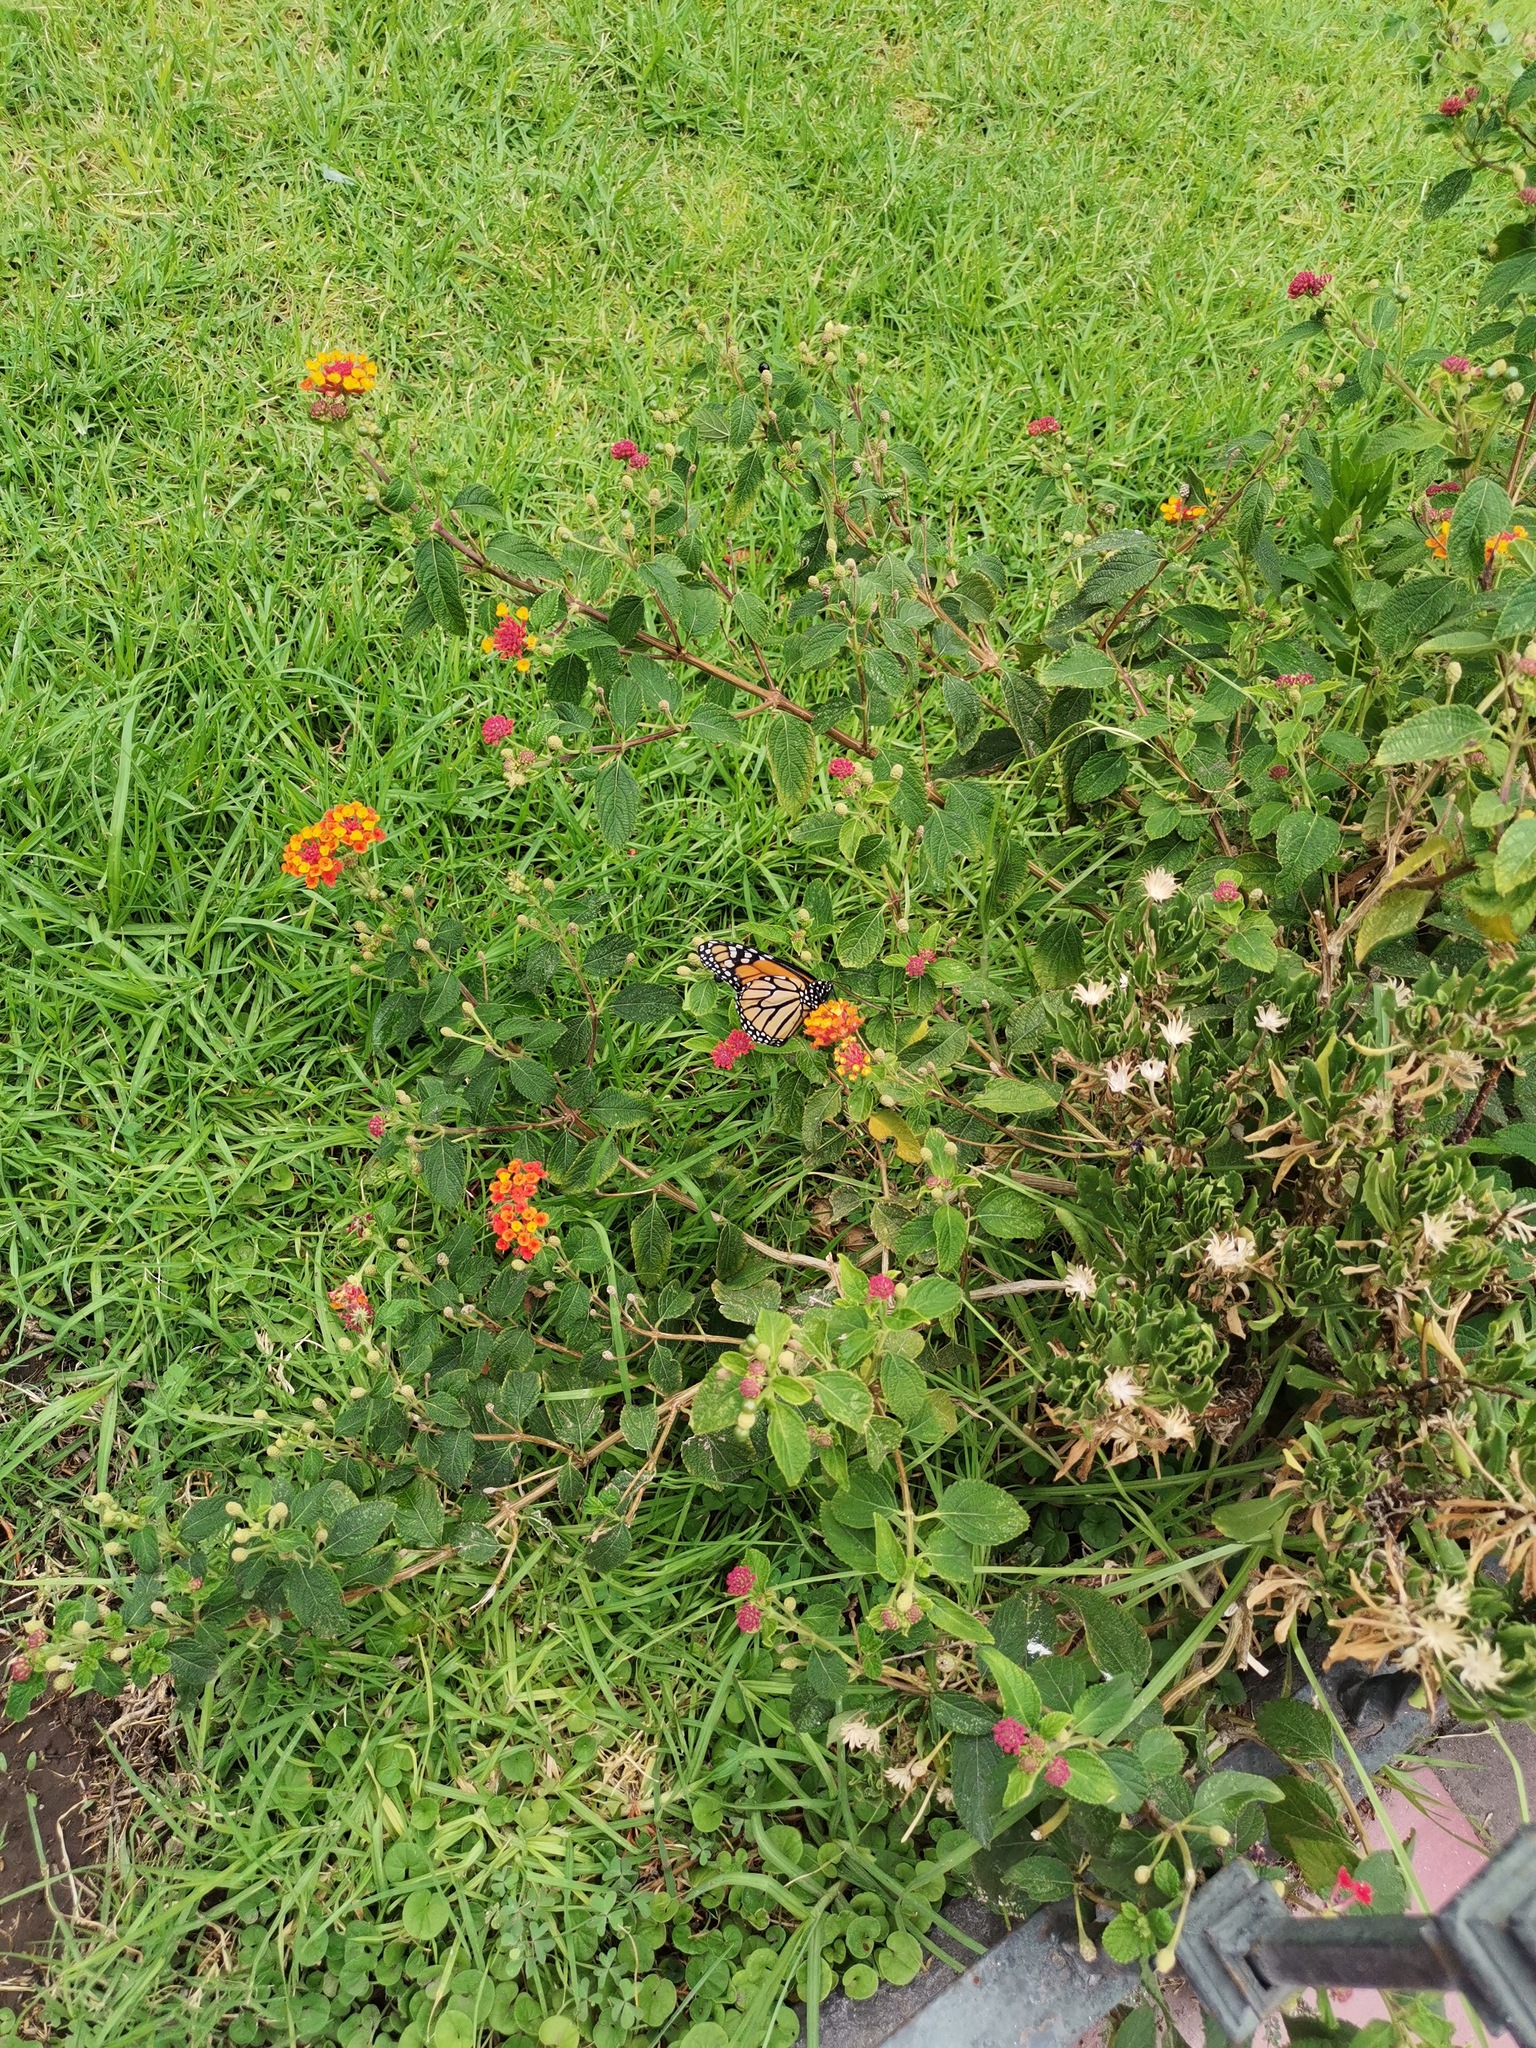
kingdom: Animalia
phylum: Arthropoda
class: Insecta
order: Lepidoptera
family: Nymphalidae
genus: Danaus
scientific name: Danaus plexippus
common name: Monarch
